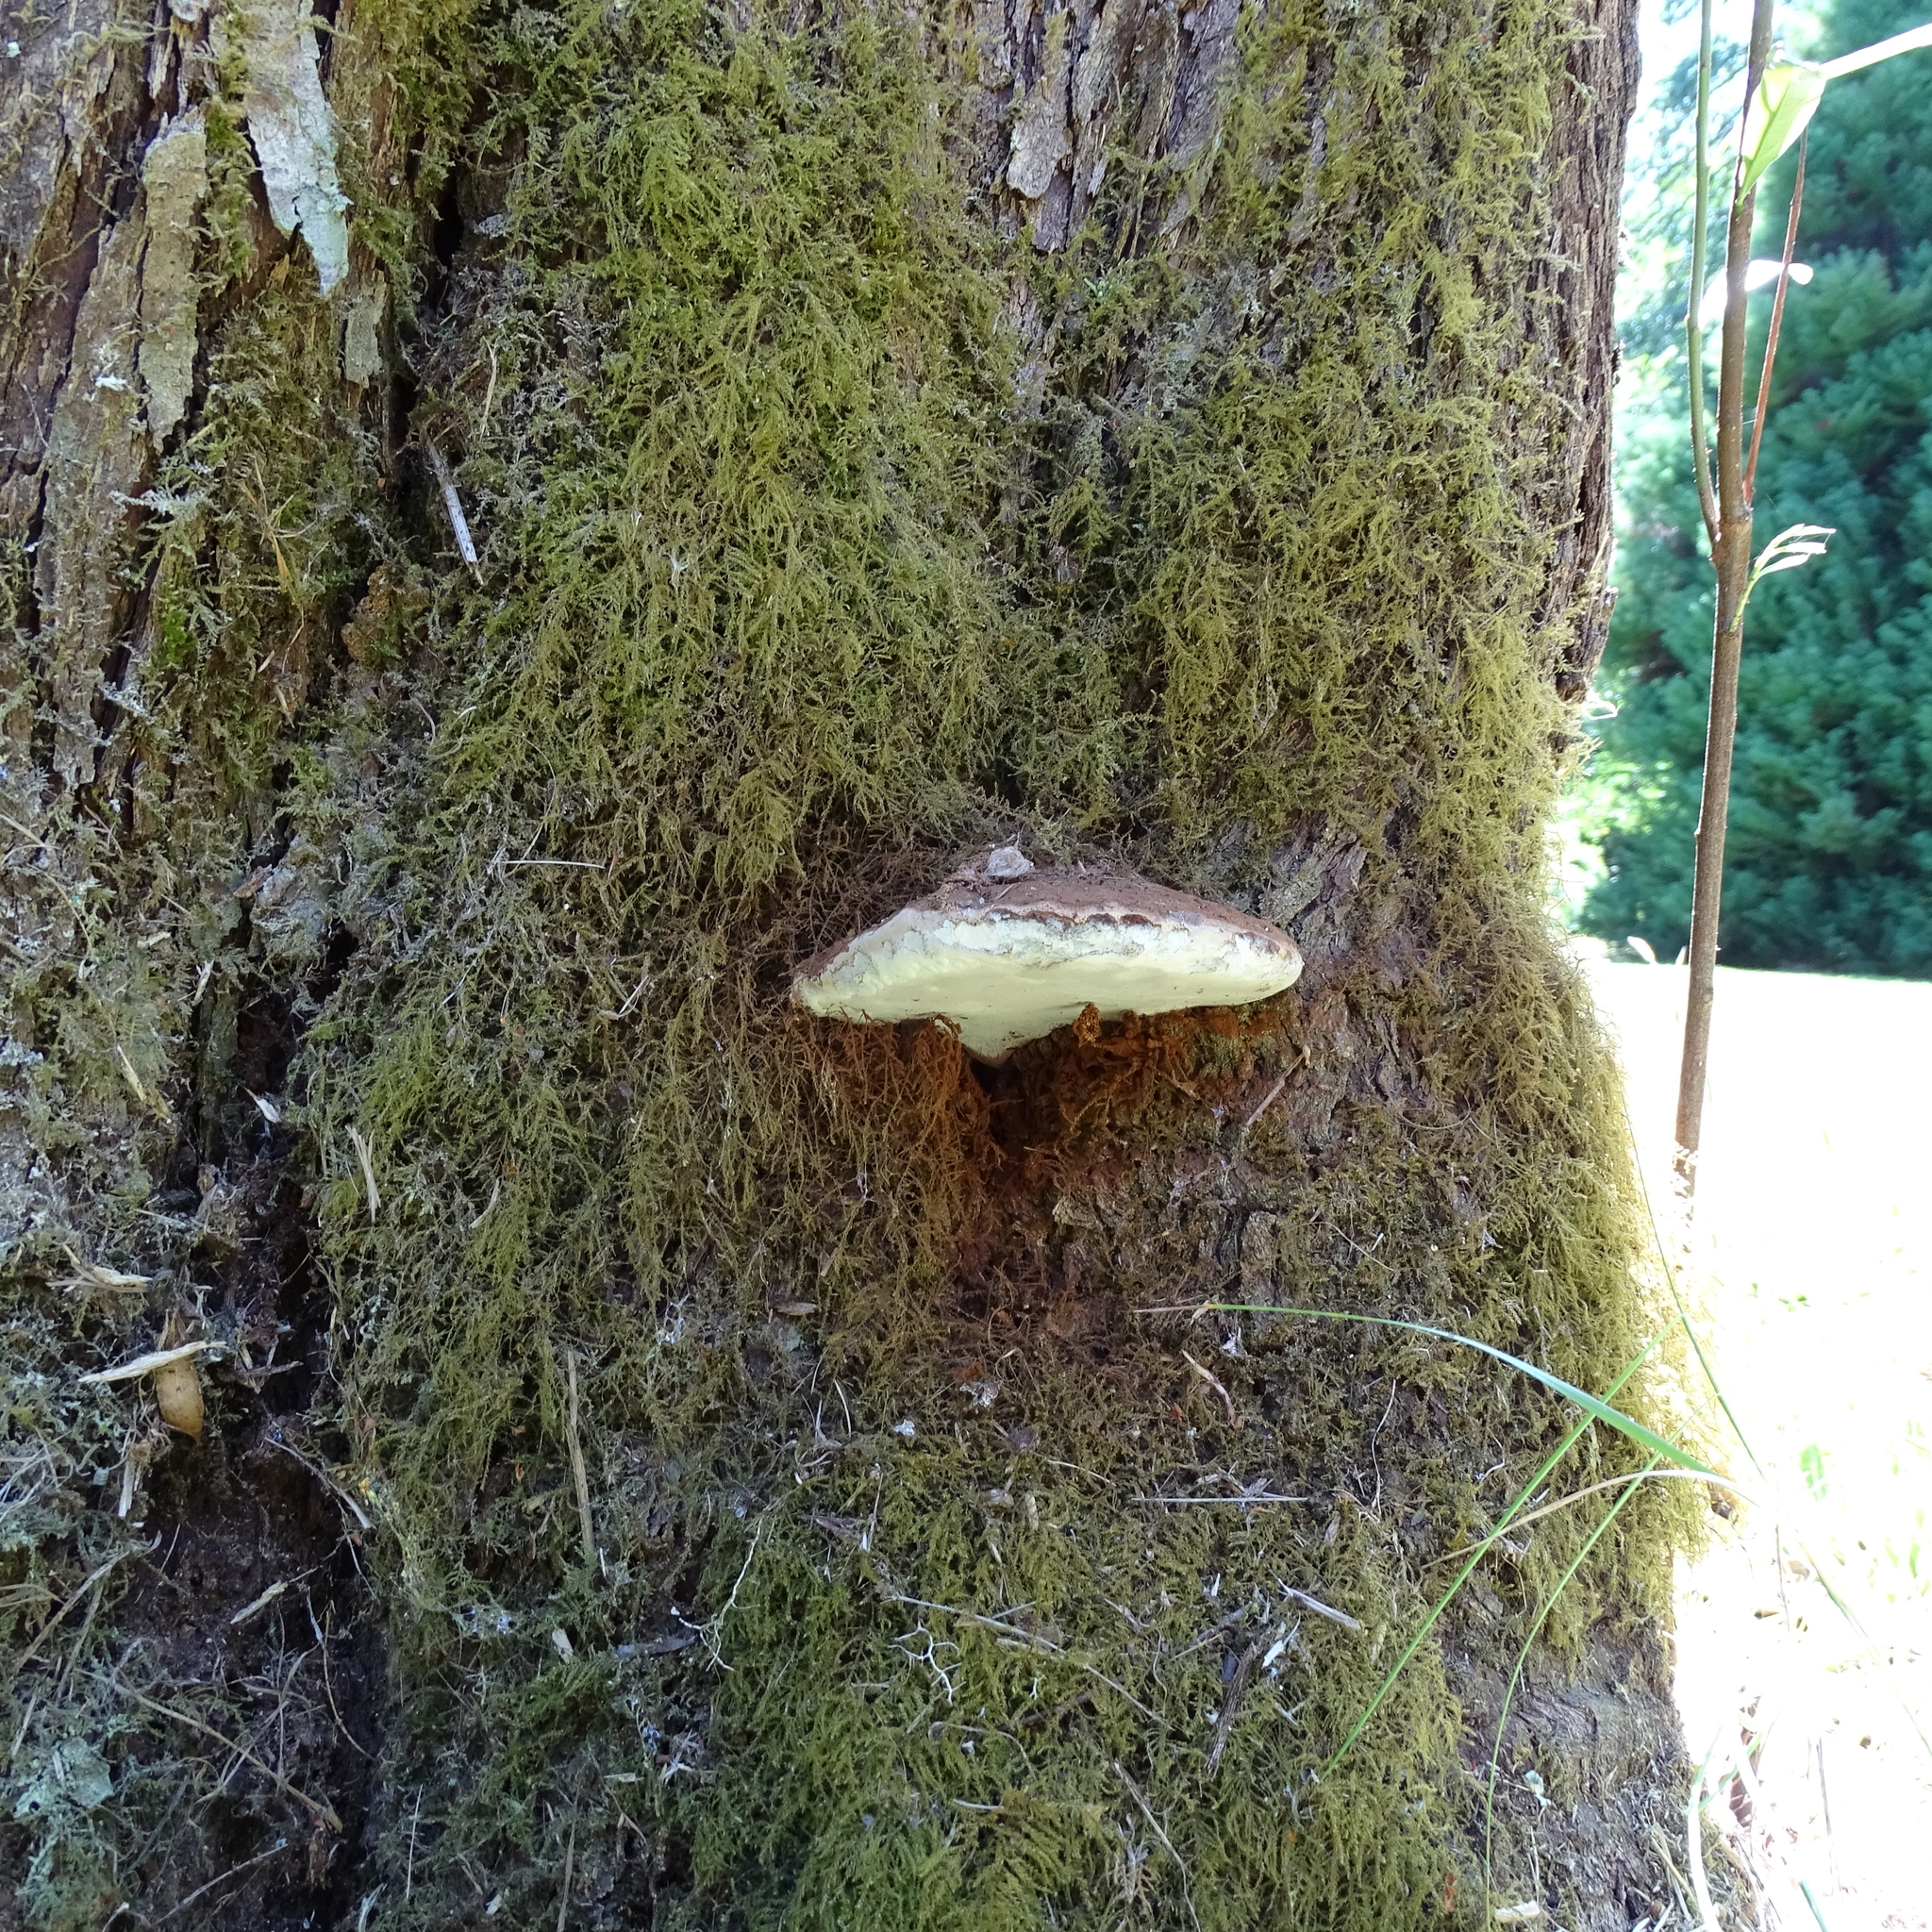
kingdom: Fungi
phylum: Basidiomycota
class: Agaricomycetes
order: Polyporales
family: Polyporaceae
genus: Ganoderma
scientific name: Ganoderma australe
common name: Southern bracket
